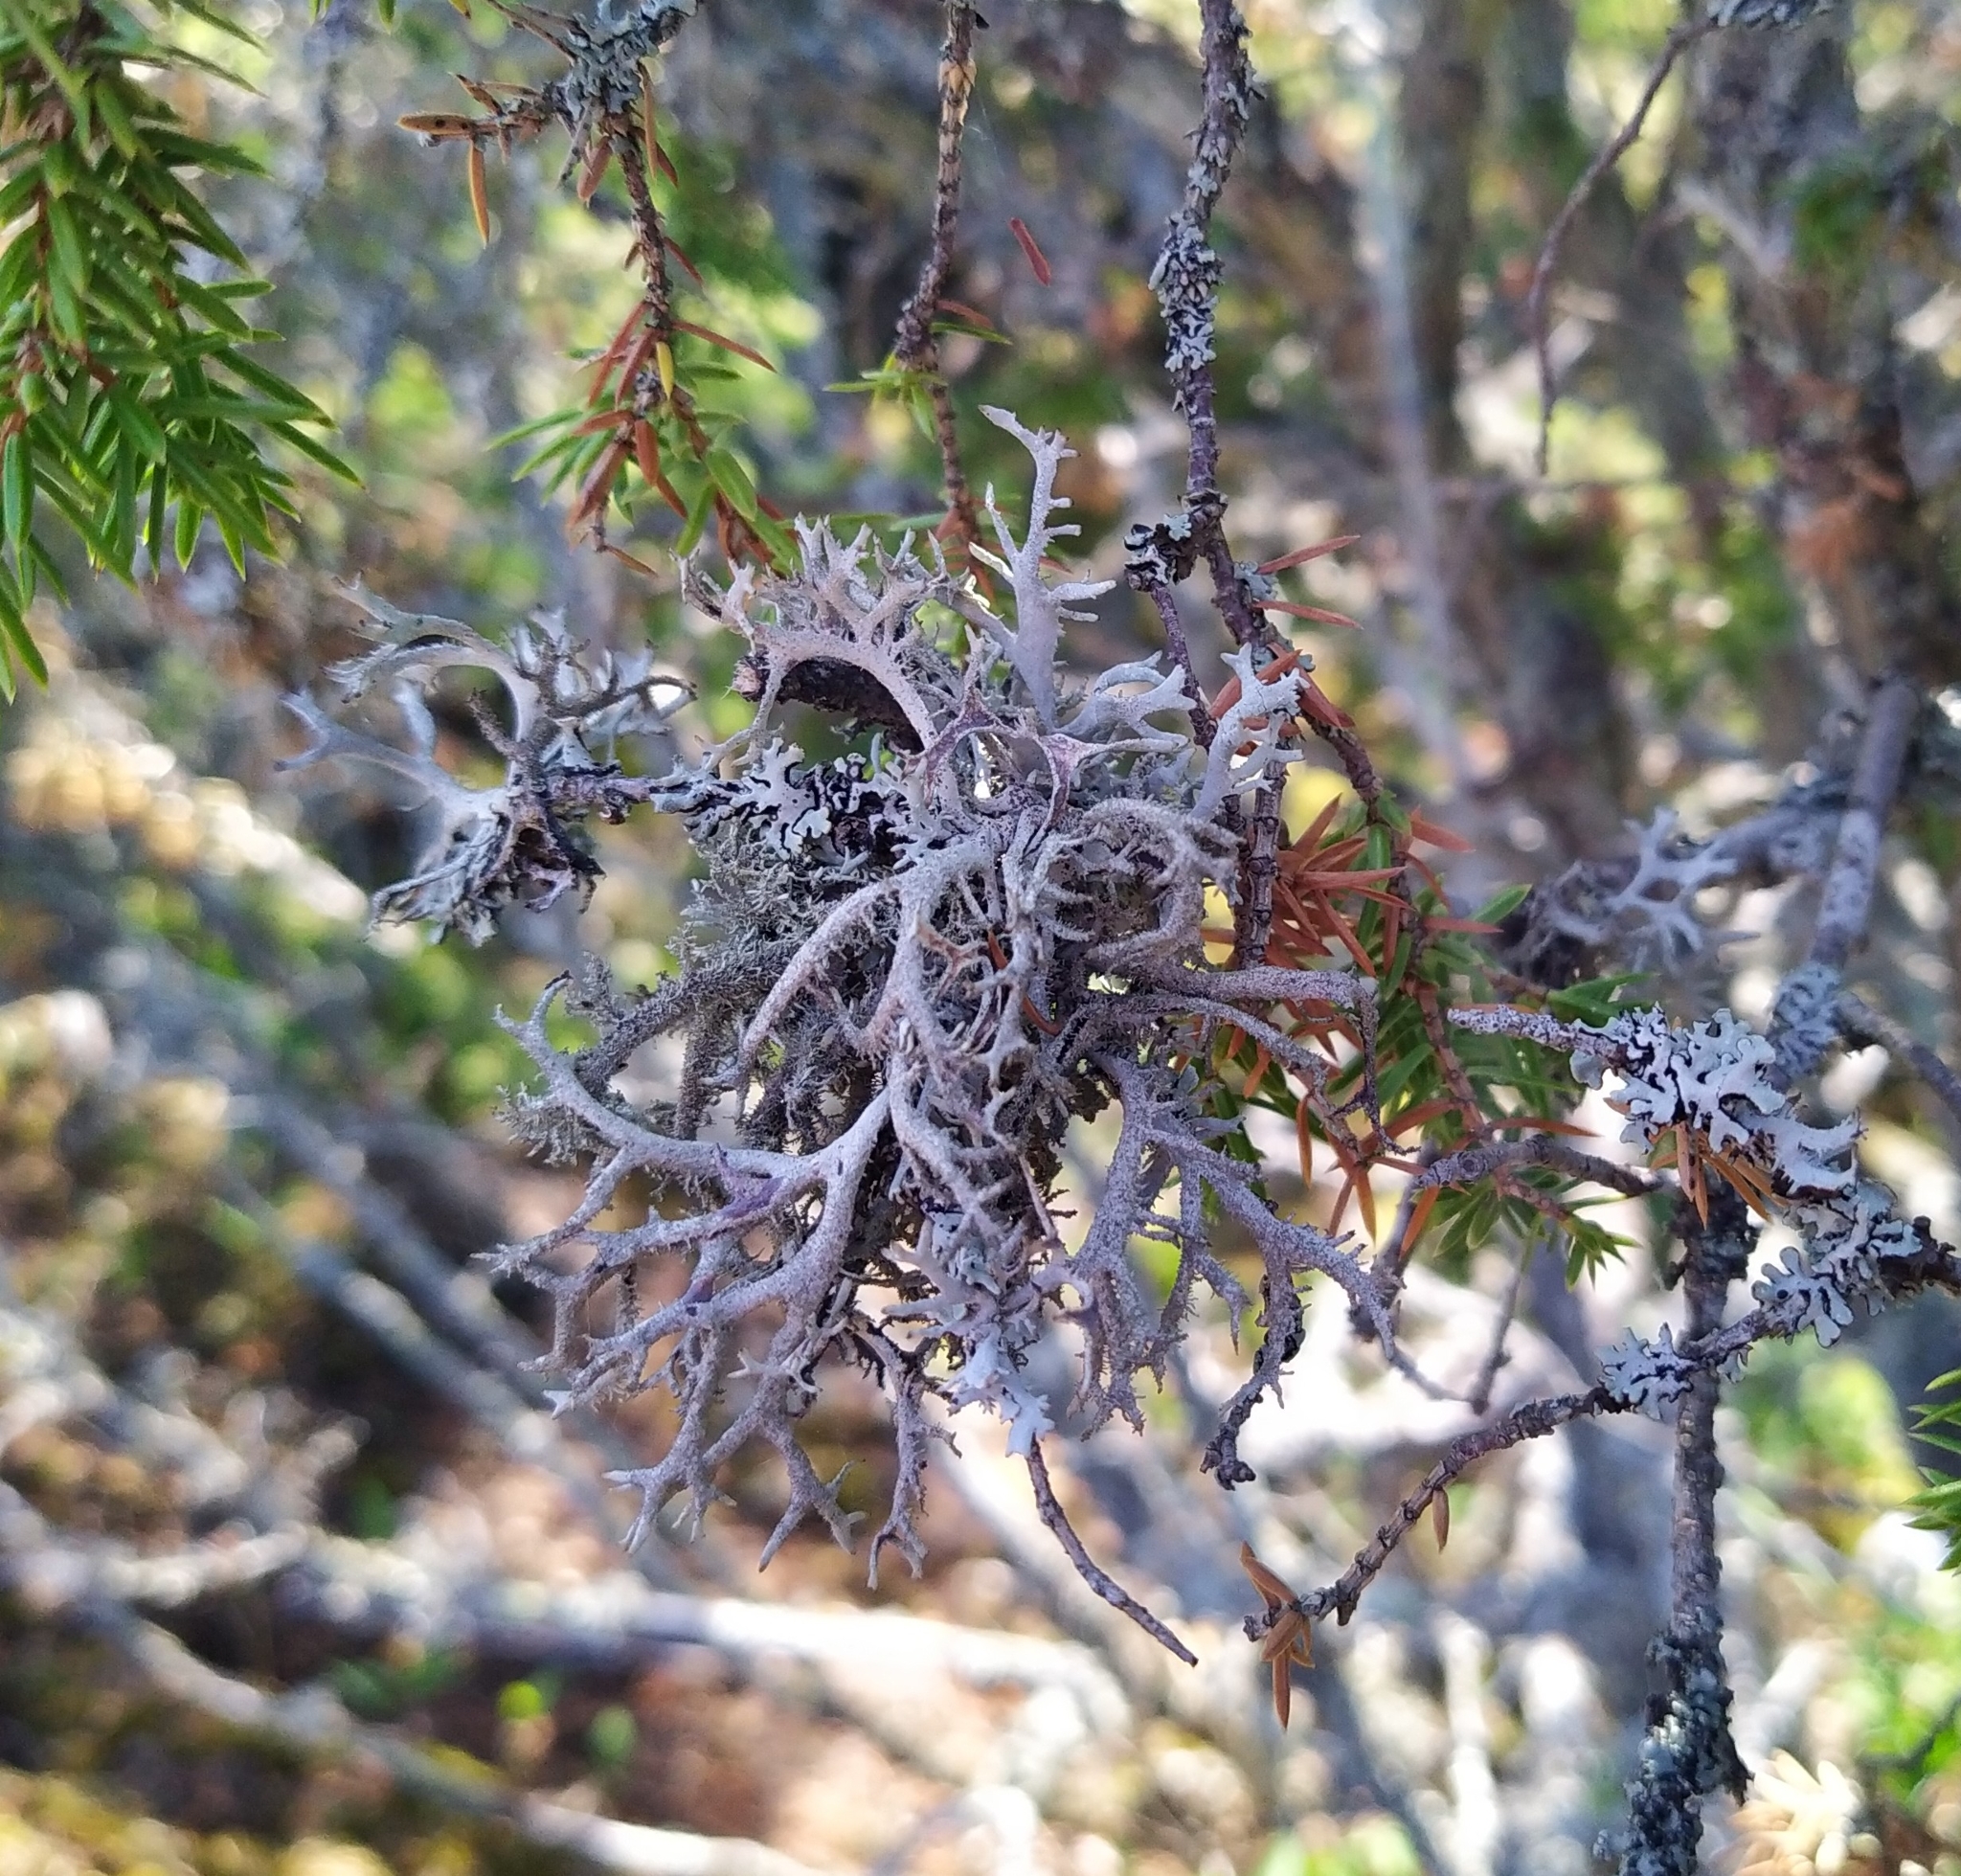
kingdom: Fungi
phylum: Ascomycota
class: Lecanoromycetes
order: Lecanorales
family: Parmeliaceae
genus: Pseudevernia
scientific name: Pseudevernia furfuracea
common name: Tree moss
